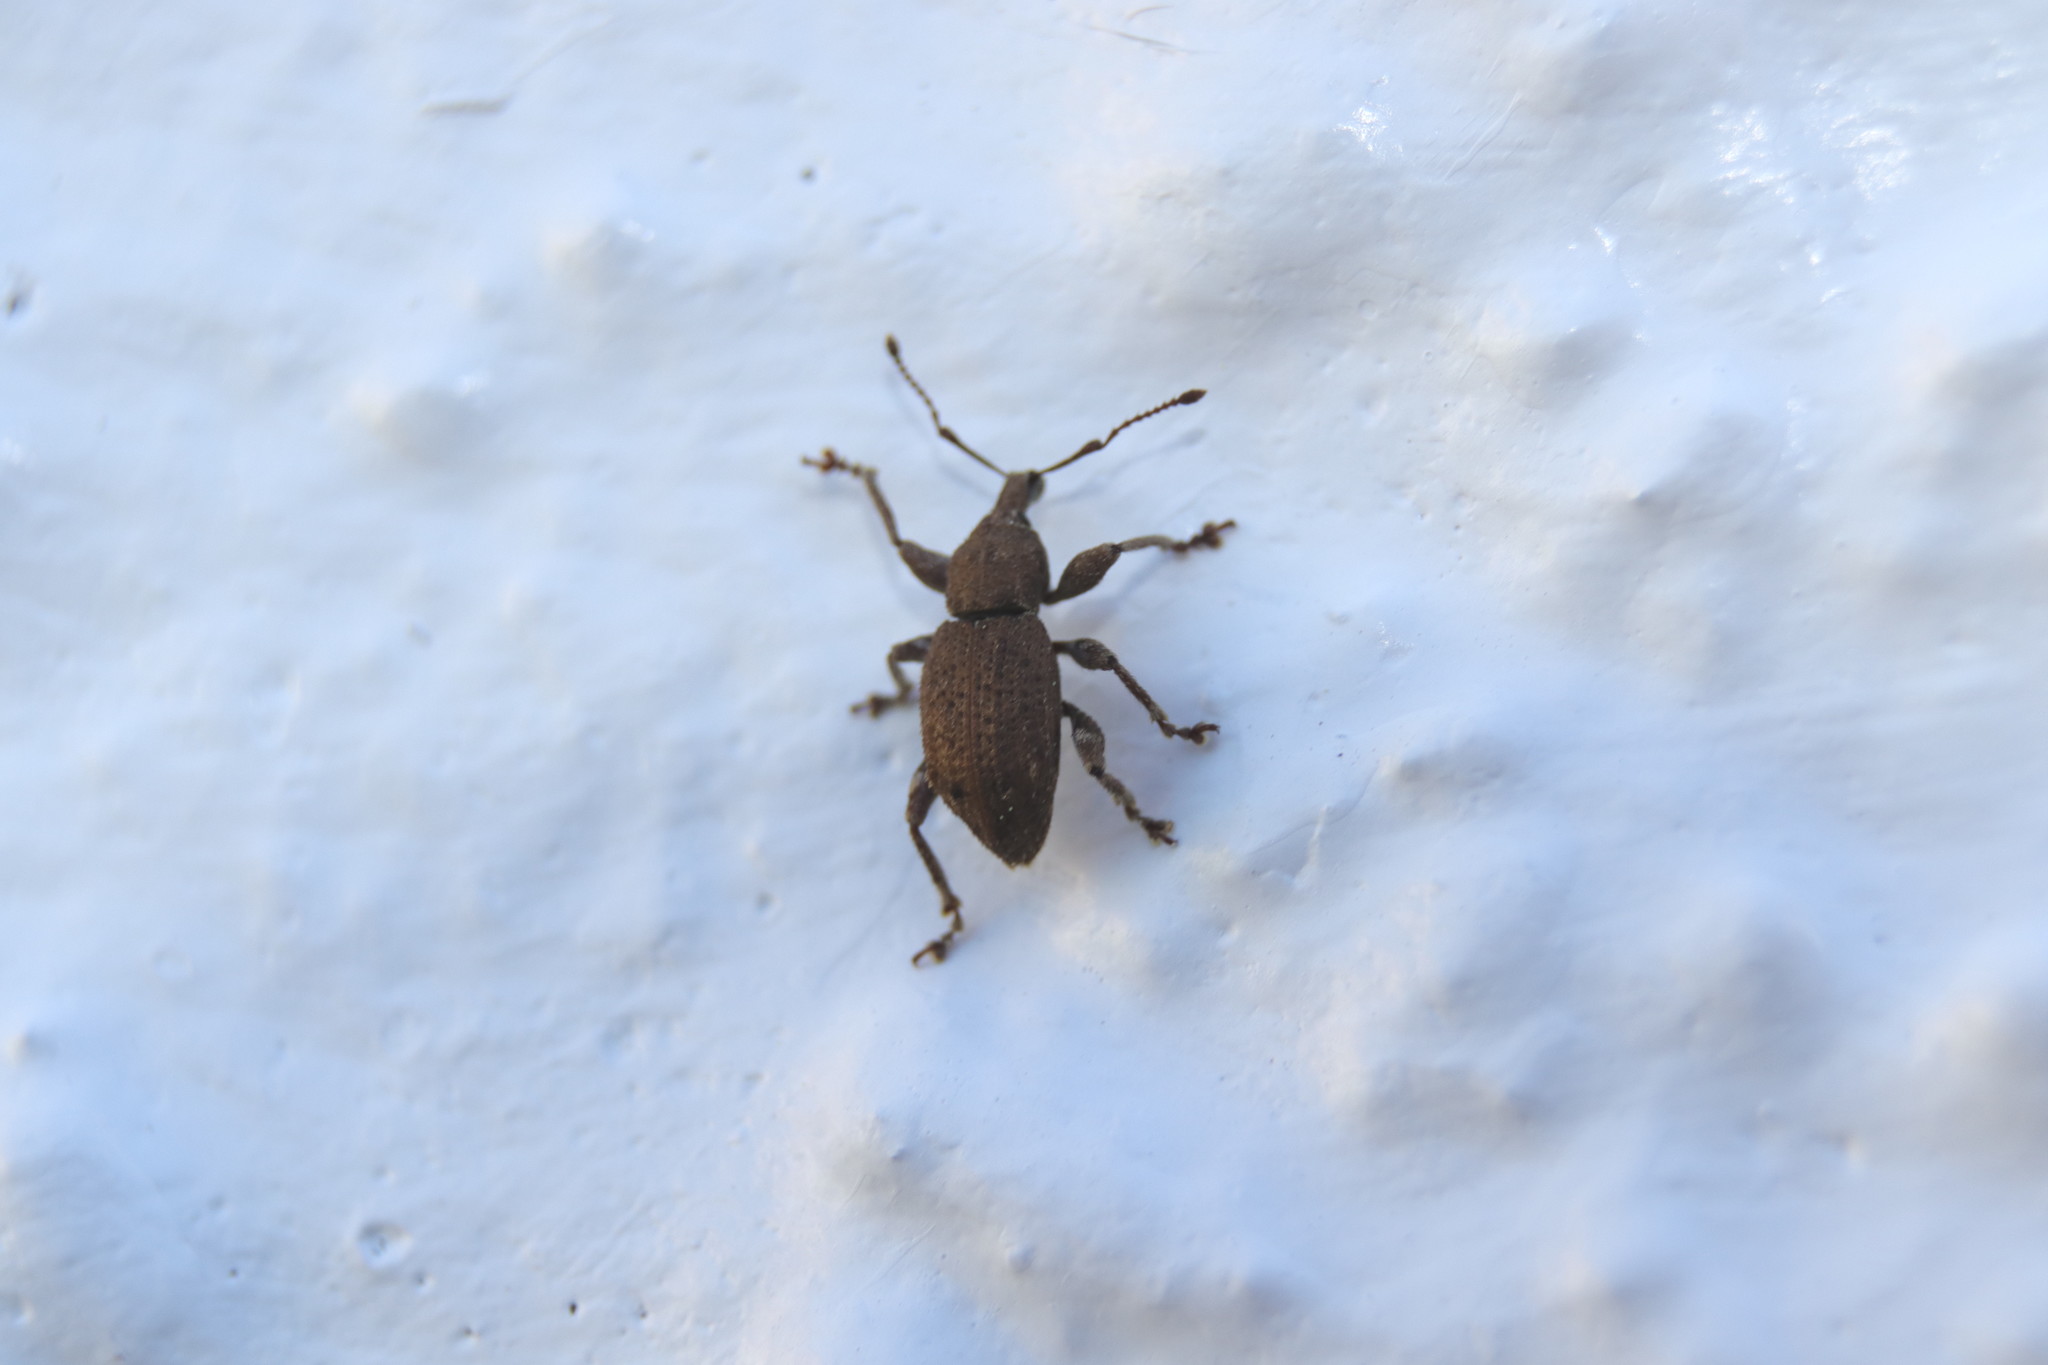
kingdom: Animalia
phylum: Arthropoda
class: Insecta
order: Coleoptera
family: Curculionidae
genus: Chalepistes
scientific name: Chalepistes rubidus
